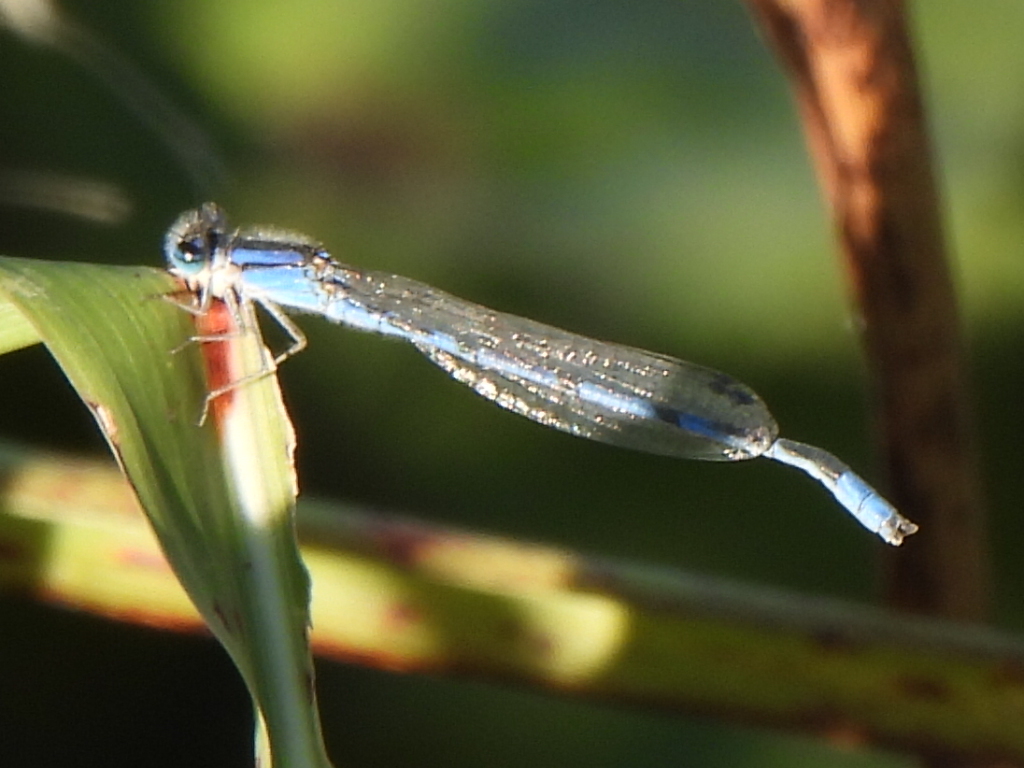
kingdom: Animalia
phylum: Arthropoda
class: Insecta
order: Odonata
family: Coenagrionidae
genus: Enallagma
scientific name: Enallagma civile
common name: Damselfly
